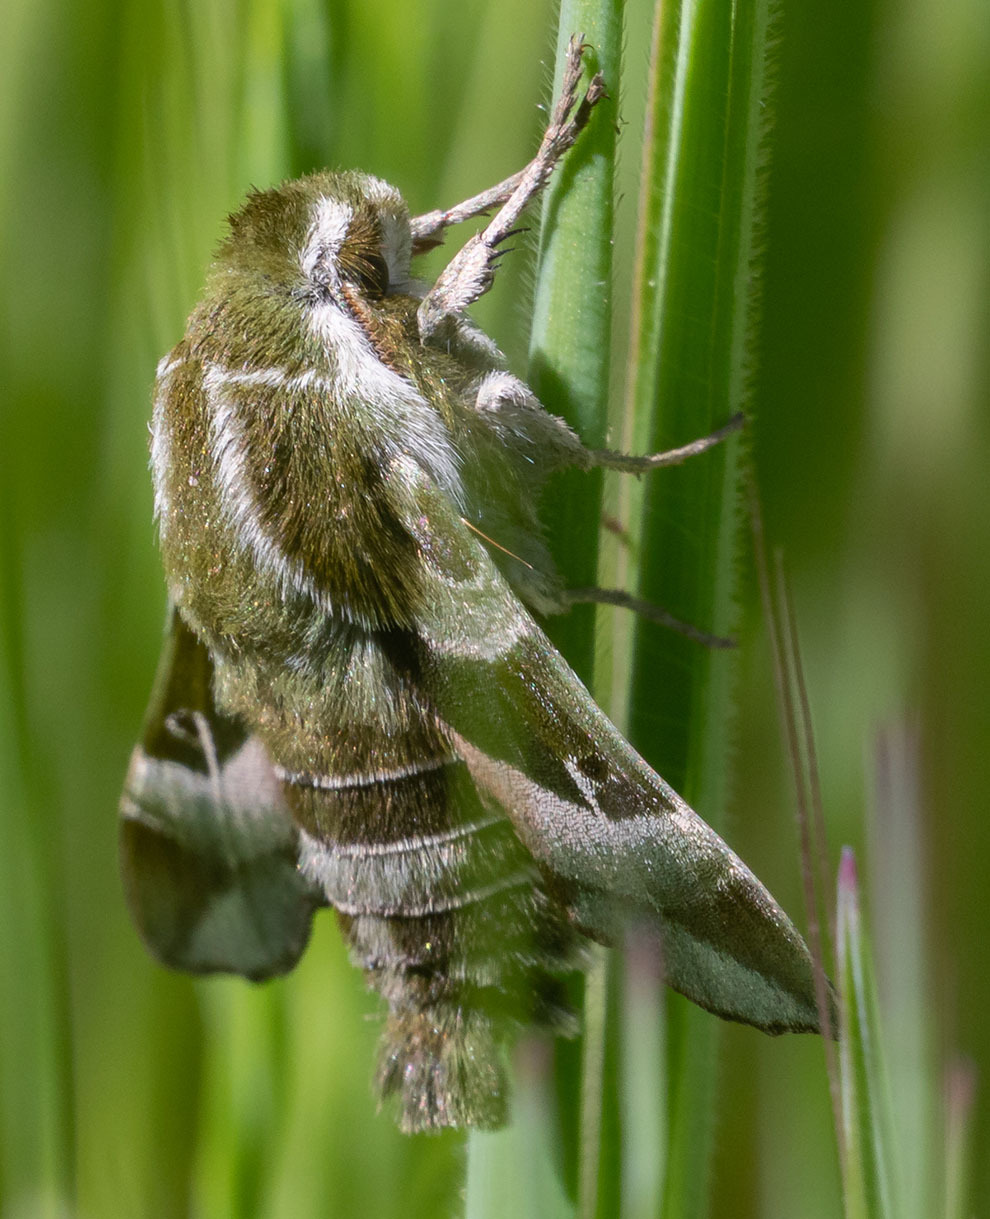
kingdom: Animalia
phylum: Arthropoda
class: Insecta
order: Lepidoptera
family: Sphingidae
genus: Proserpinus
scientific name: Proserpinus clarkiae
